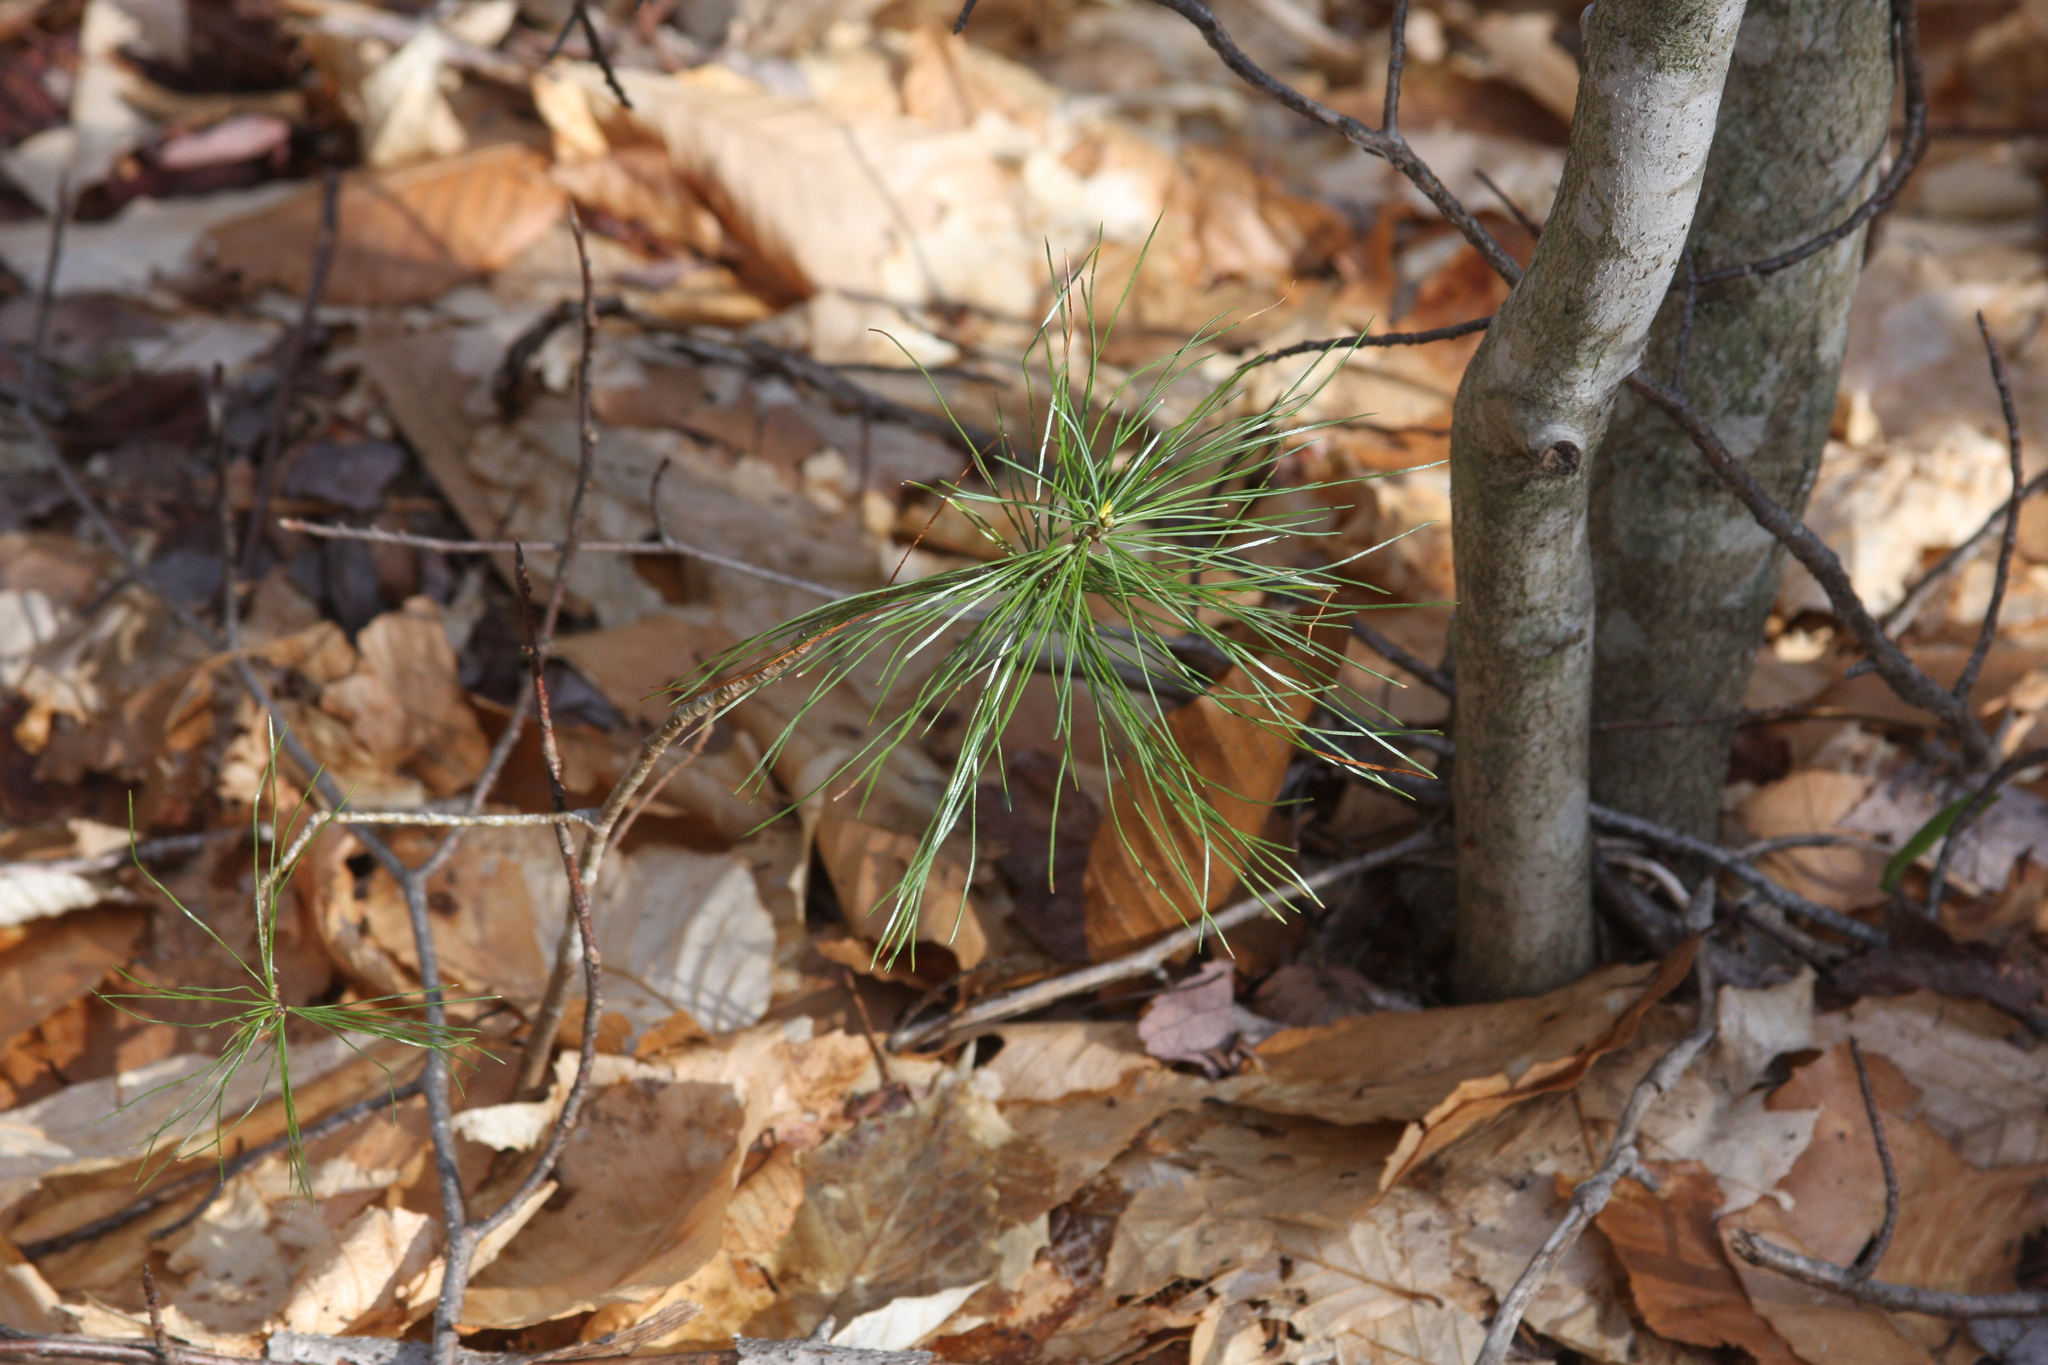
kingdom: Plantae
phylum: Tracheophyta
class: Pinopsida
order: Pinales
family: Pinaceae
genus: Pinus
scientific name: Pinus strobus
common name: Weymouth pine
